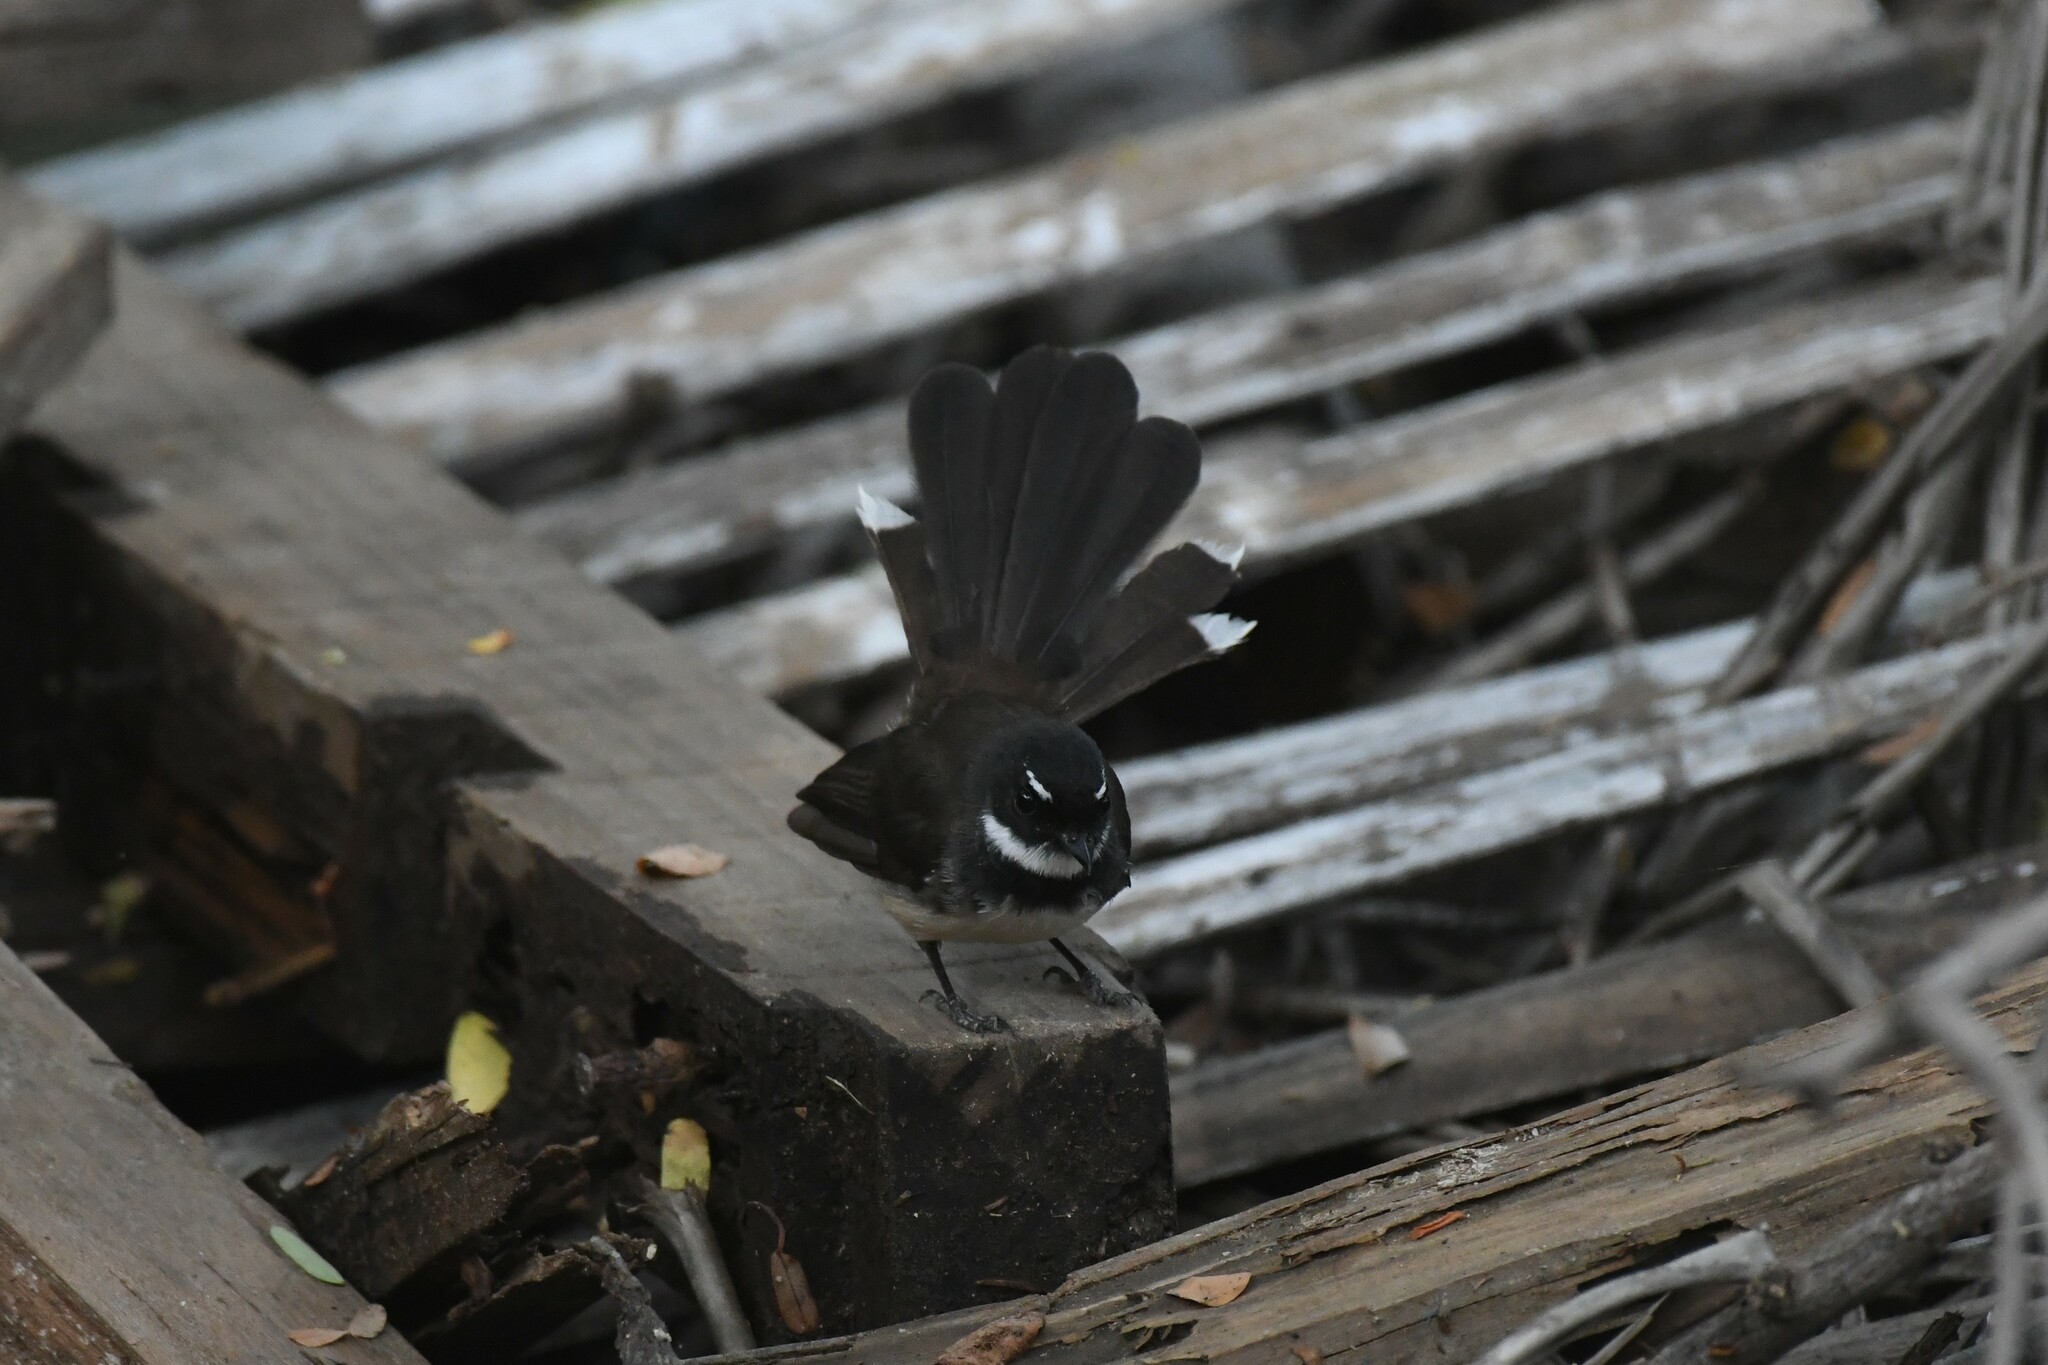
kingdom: Animalia
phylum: Chordata
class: Aves
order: Passeriformes
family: Rhipiduridae
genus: Rhipidura
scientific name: Rhipidura javanica
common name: Pied fantail
